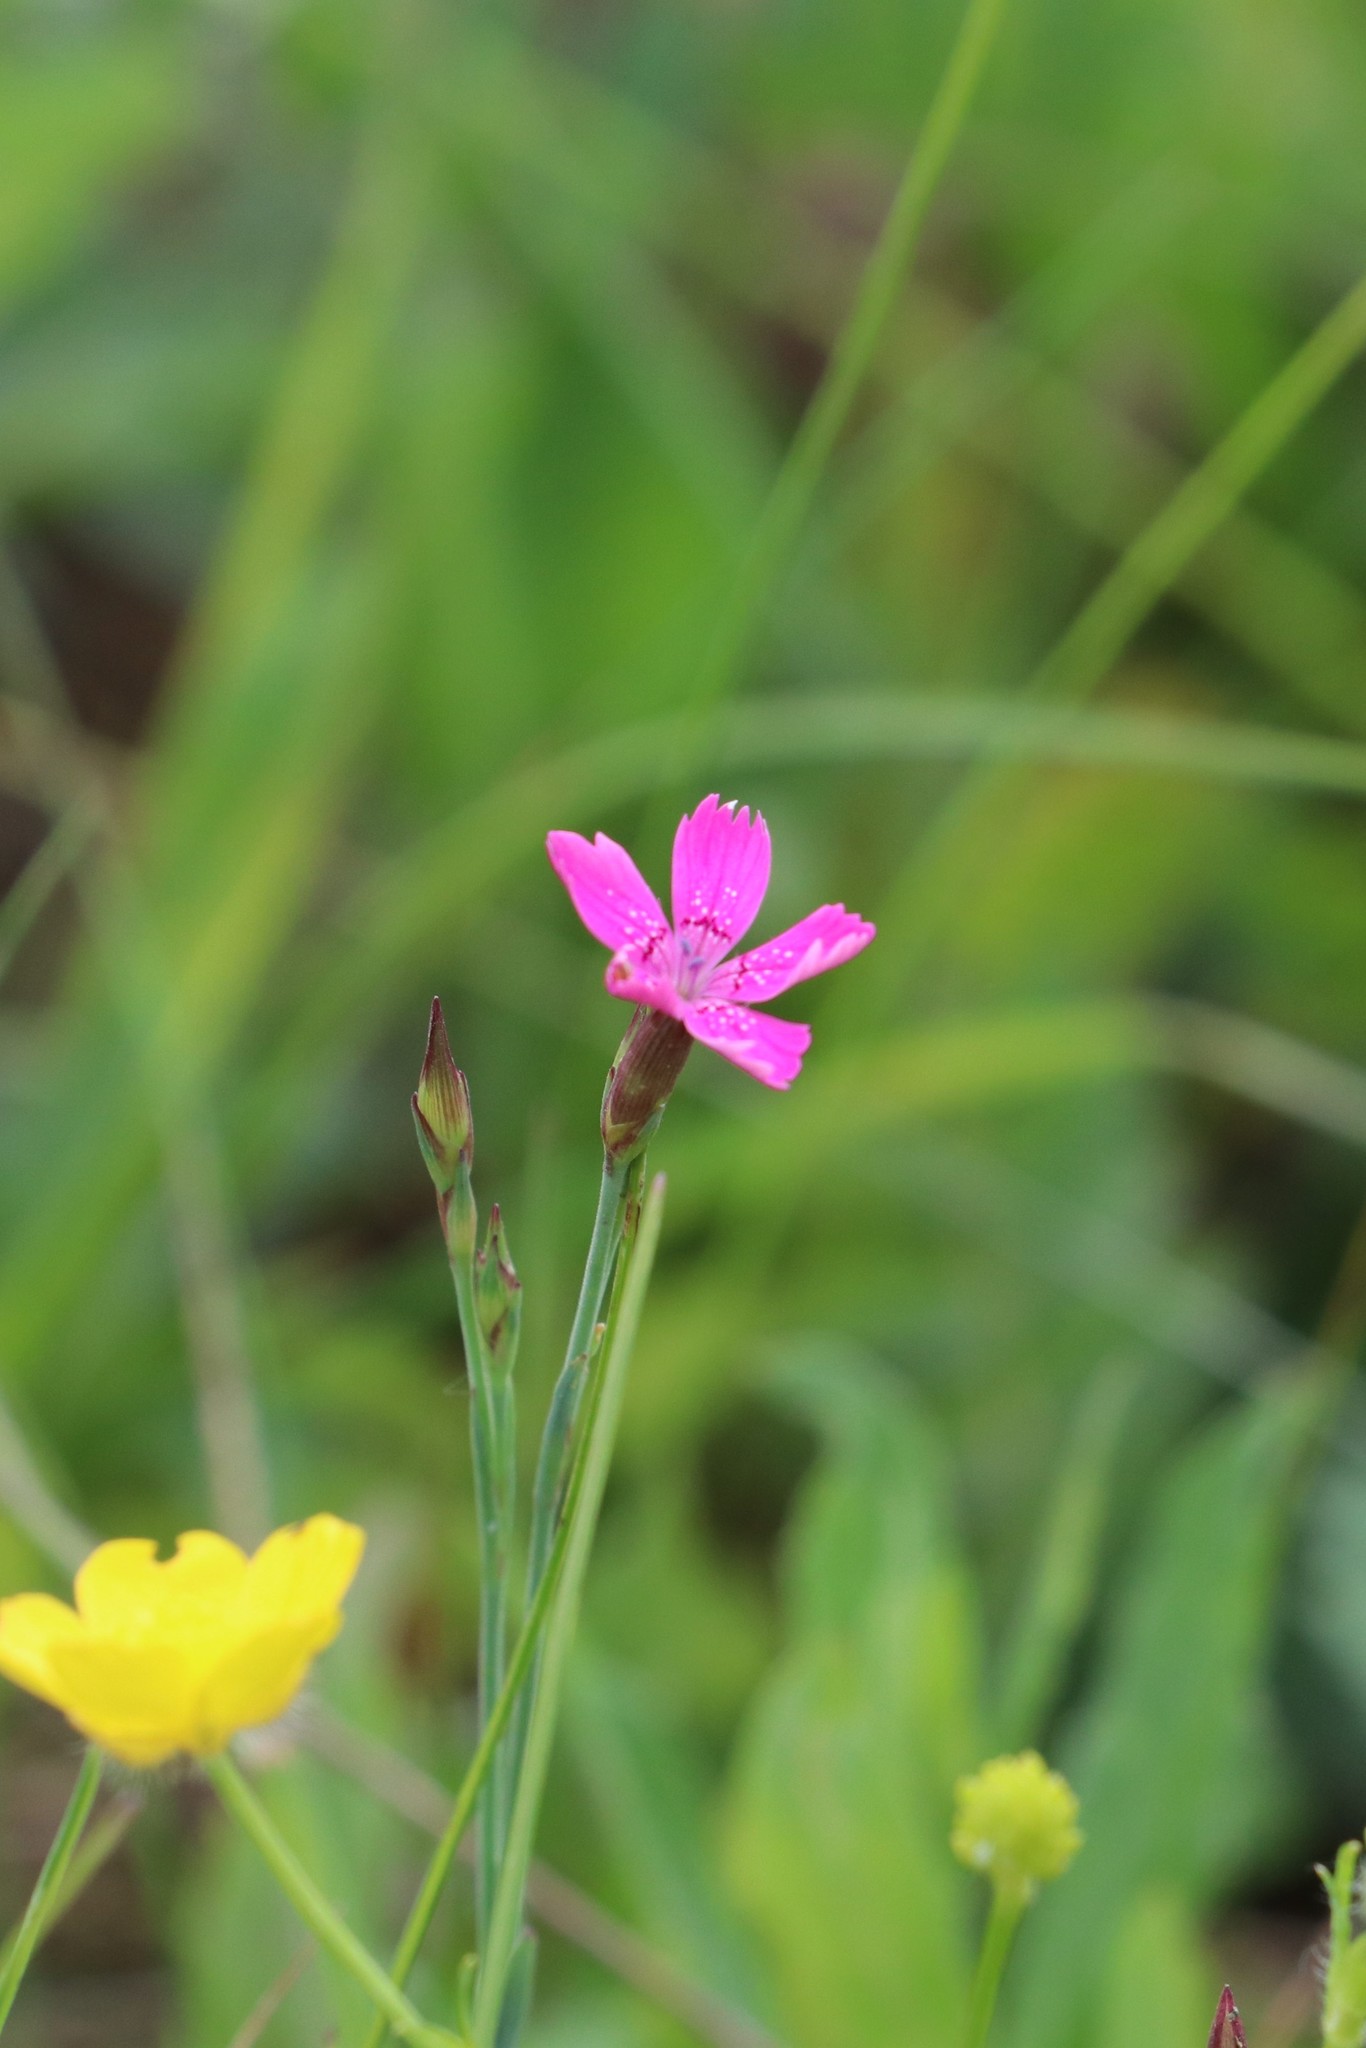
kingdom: Plantae
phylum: Tracheophyta
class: Magnoliopsida
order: Caryophyllales
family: Caryophyllaceae
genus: Dianthus
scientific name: Dianthus deltoides
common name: Maiden pink
